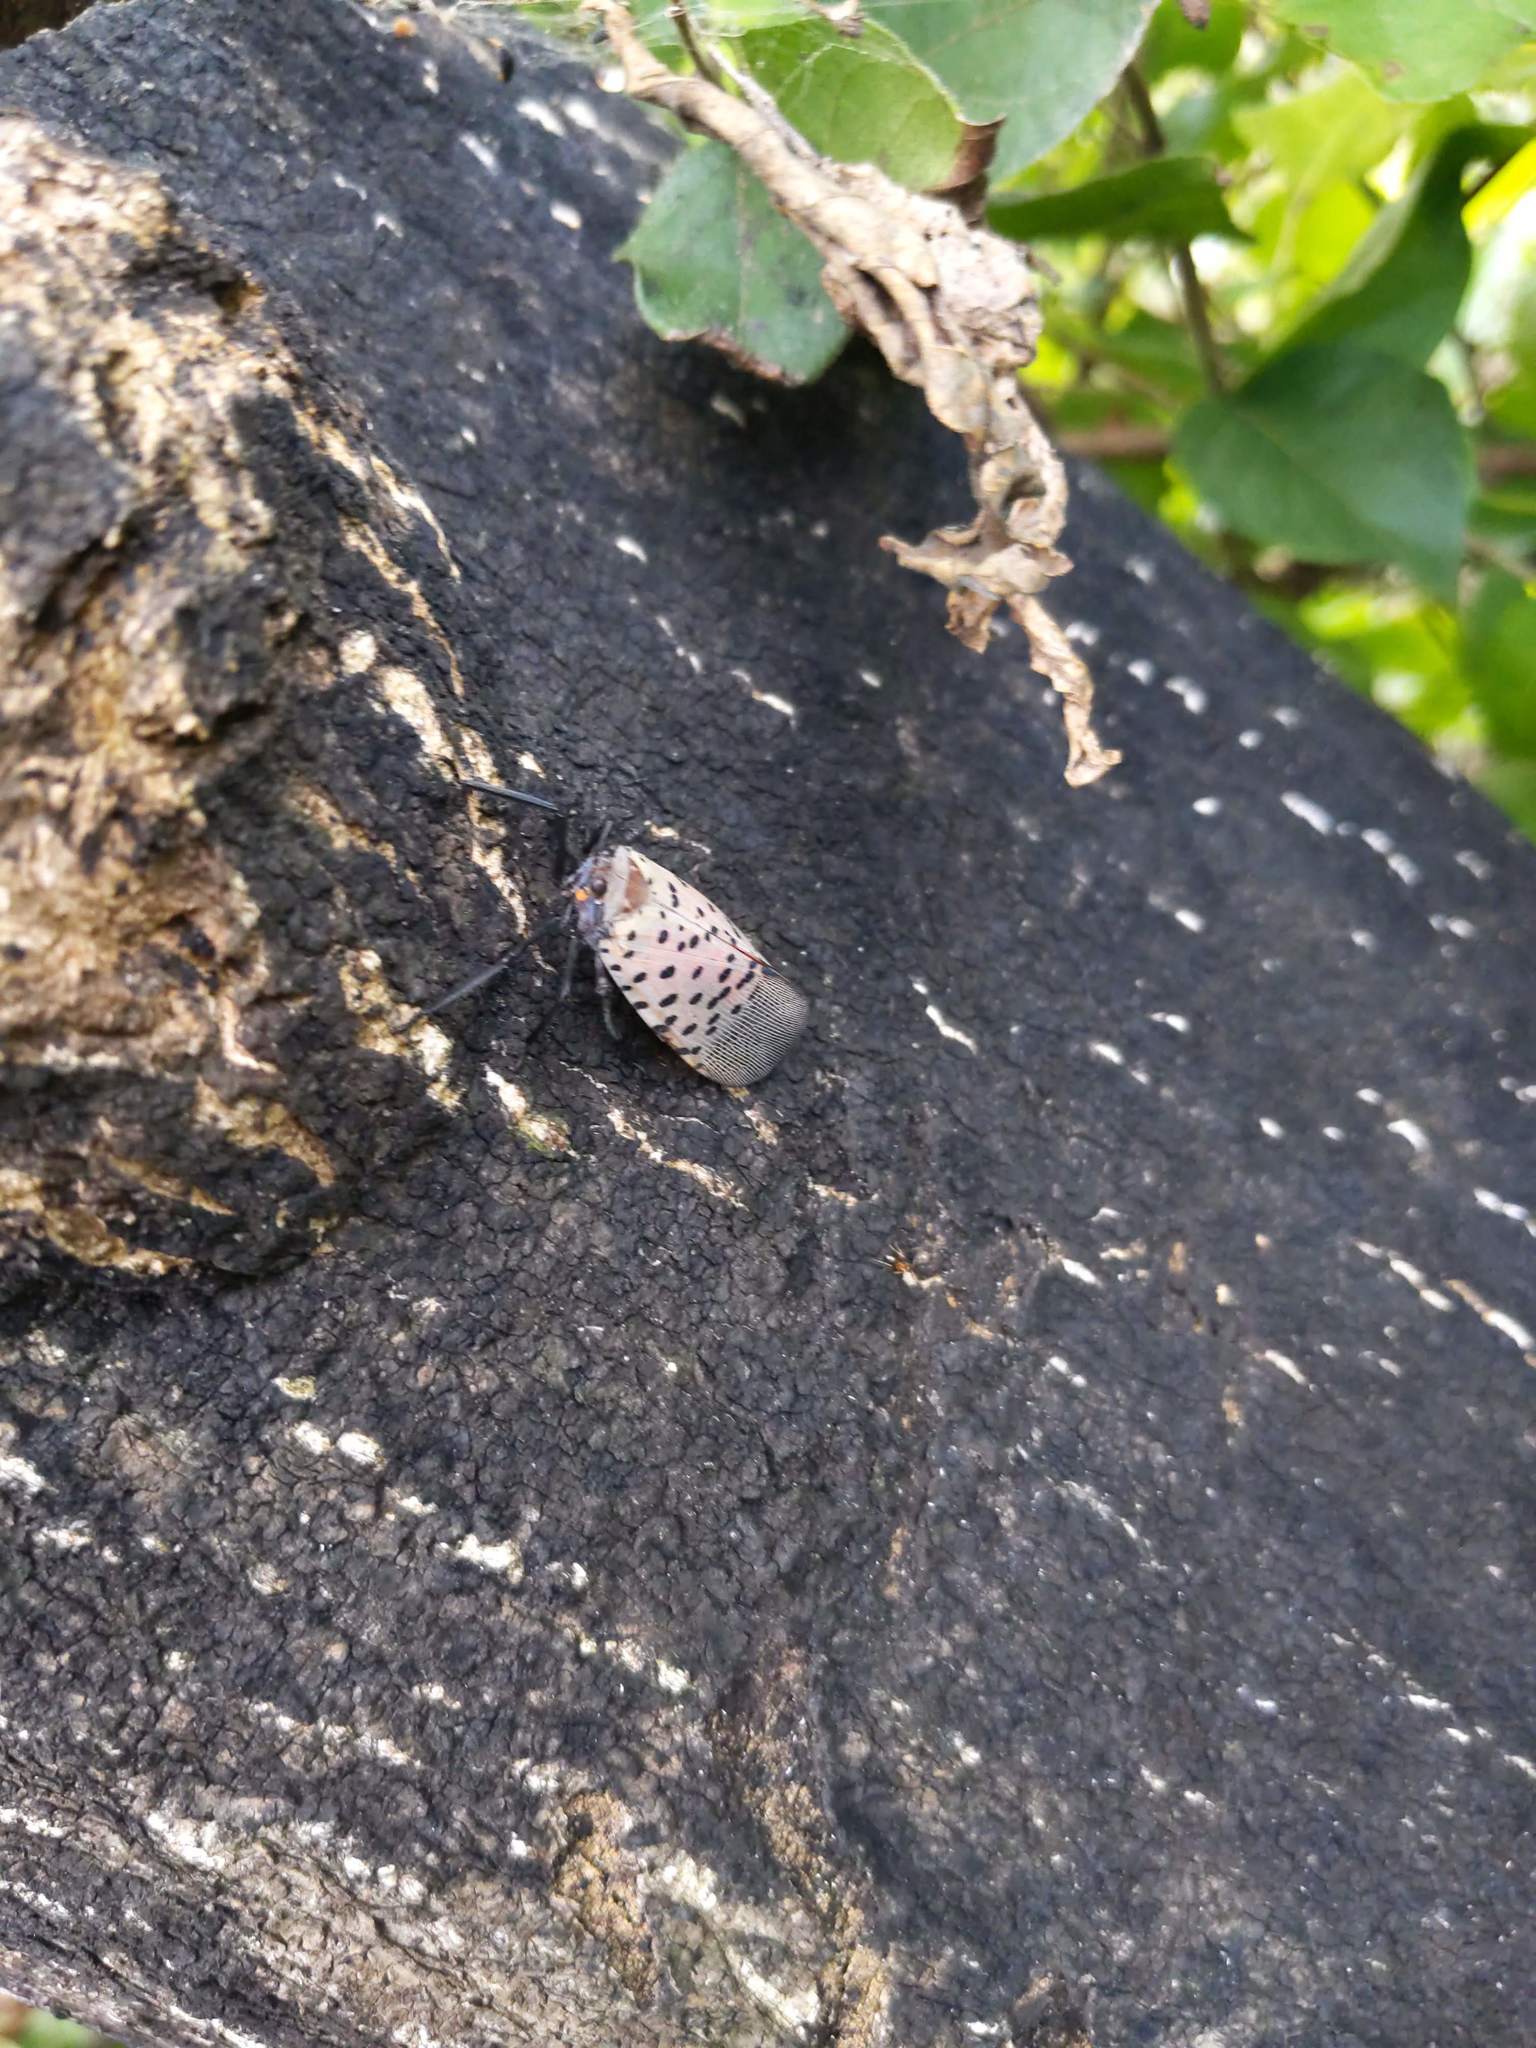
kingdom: Animalia
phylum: Arthropoda
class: Insecta
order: Hemiptera
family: Fulgoridae
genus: Lycorma
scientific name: Lycorma delicatula
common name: Spotted lanternfly
